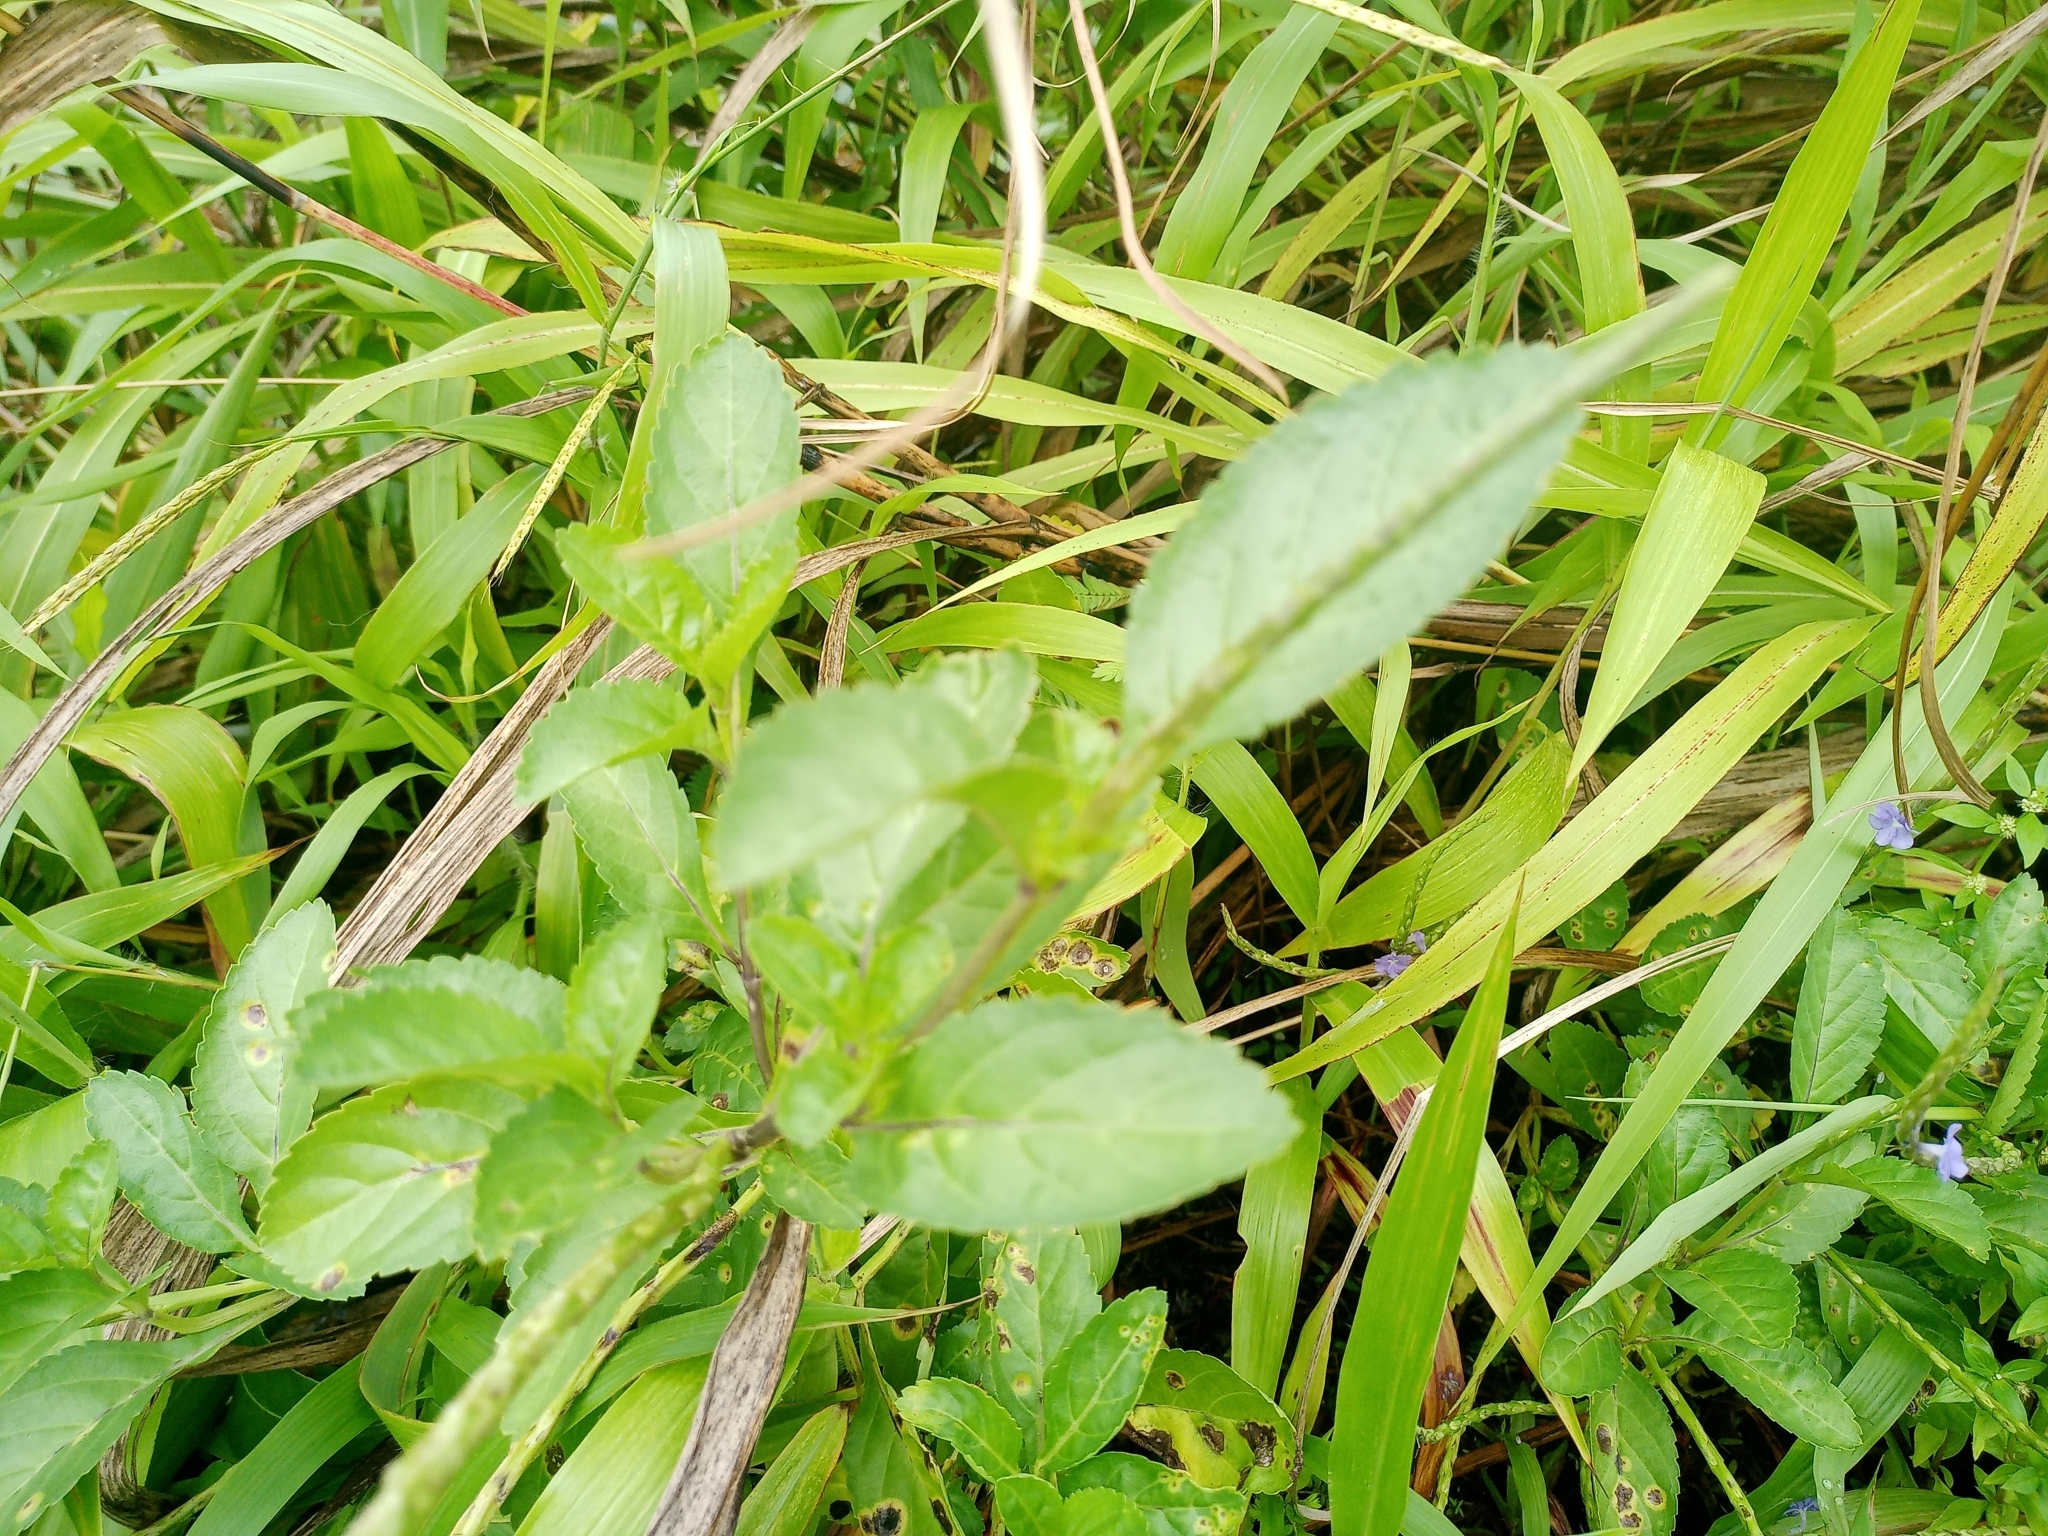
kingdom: Plantae
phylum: Tracheophyta
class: Magnoliopsida
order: Lamiales
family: Verbenaceae
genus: Stachytarpheta
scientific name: Stachytarpheta jamaicensis
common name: Light-blue snakeweed
